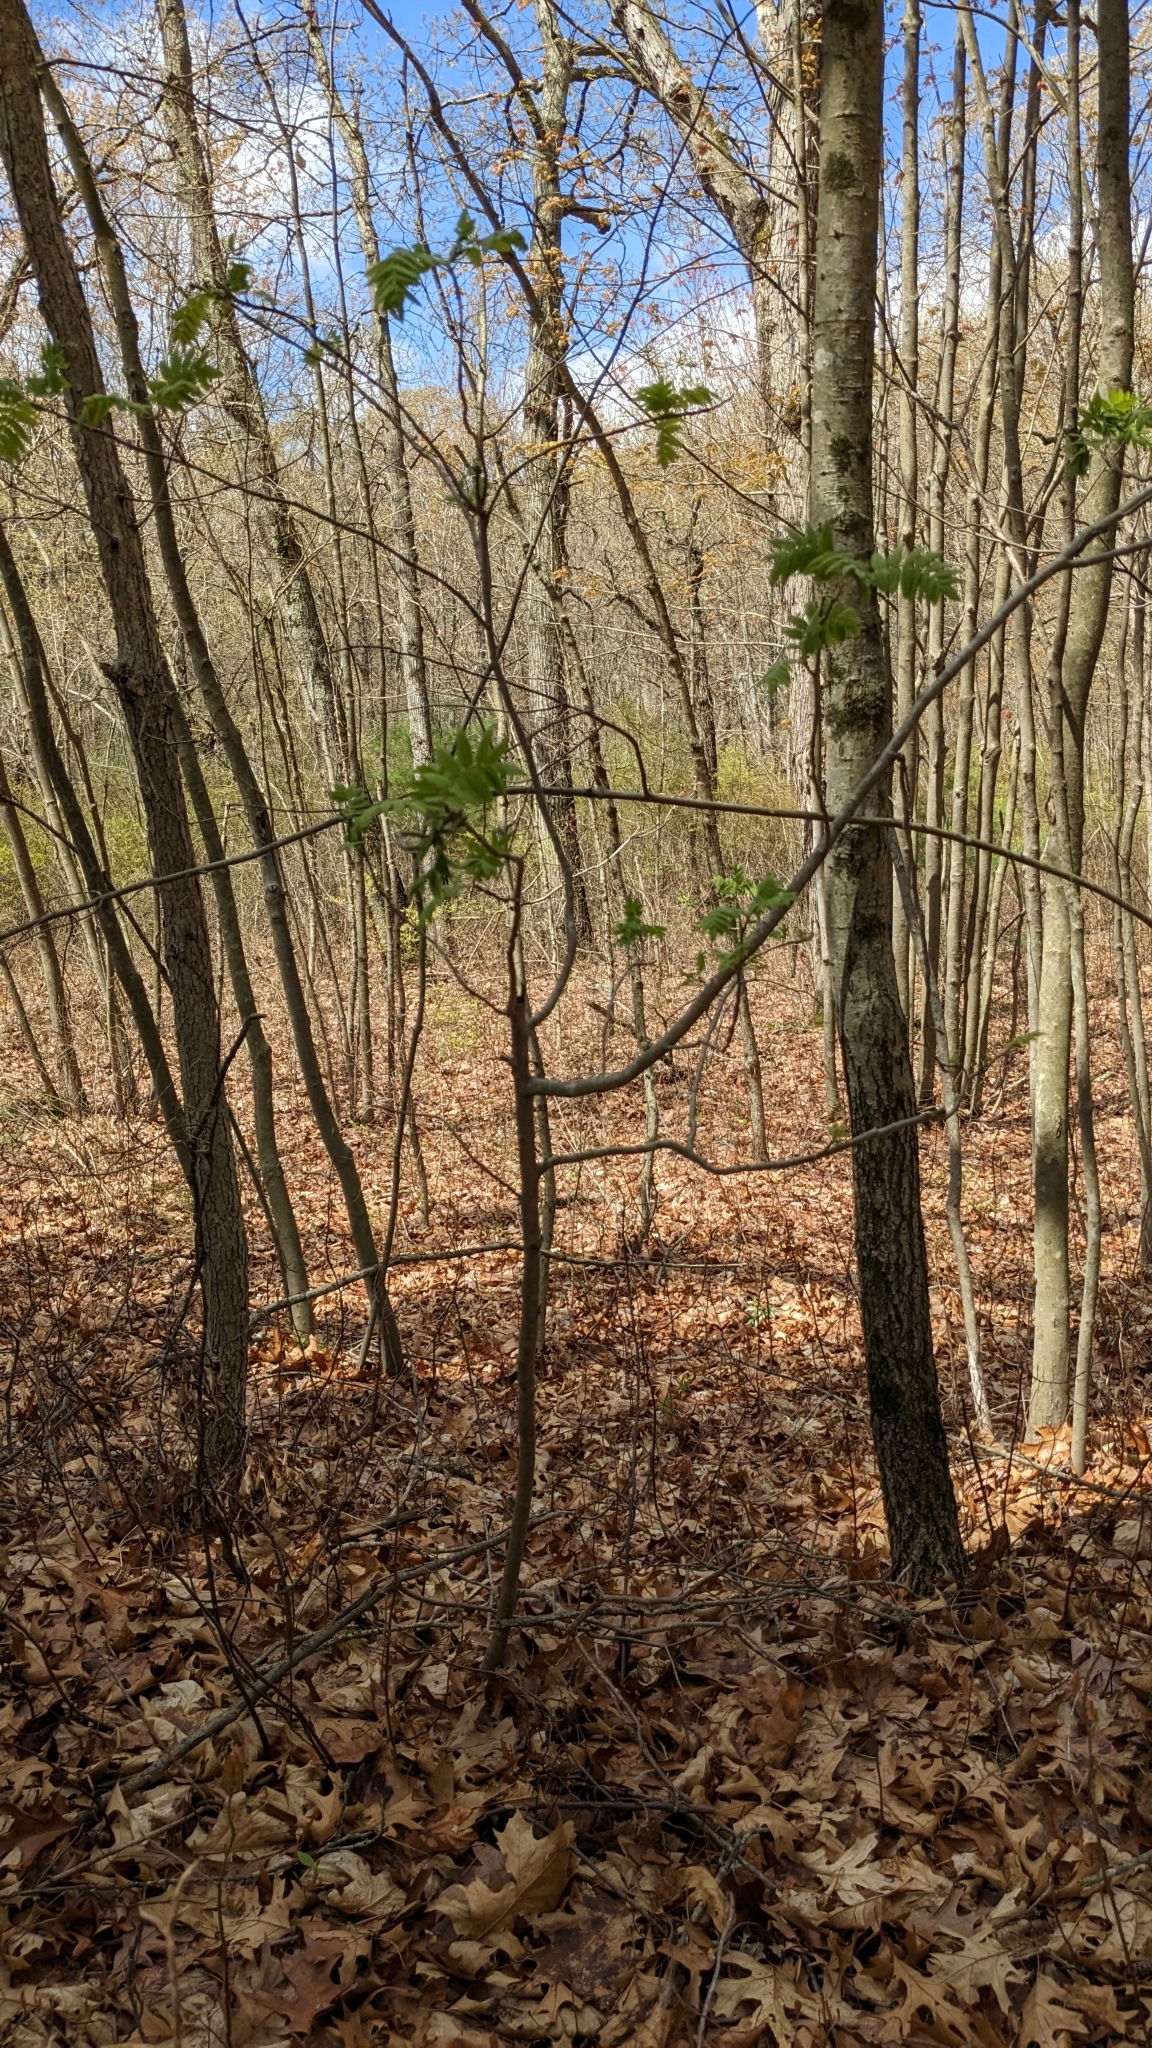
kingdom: Plantae
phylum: Tracheophyta
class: Magnoliopsida
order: Sapindales
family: Sapindaceae
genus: Acer
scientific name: Acer platanoides
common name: Norway maple
